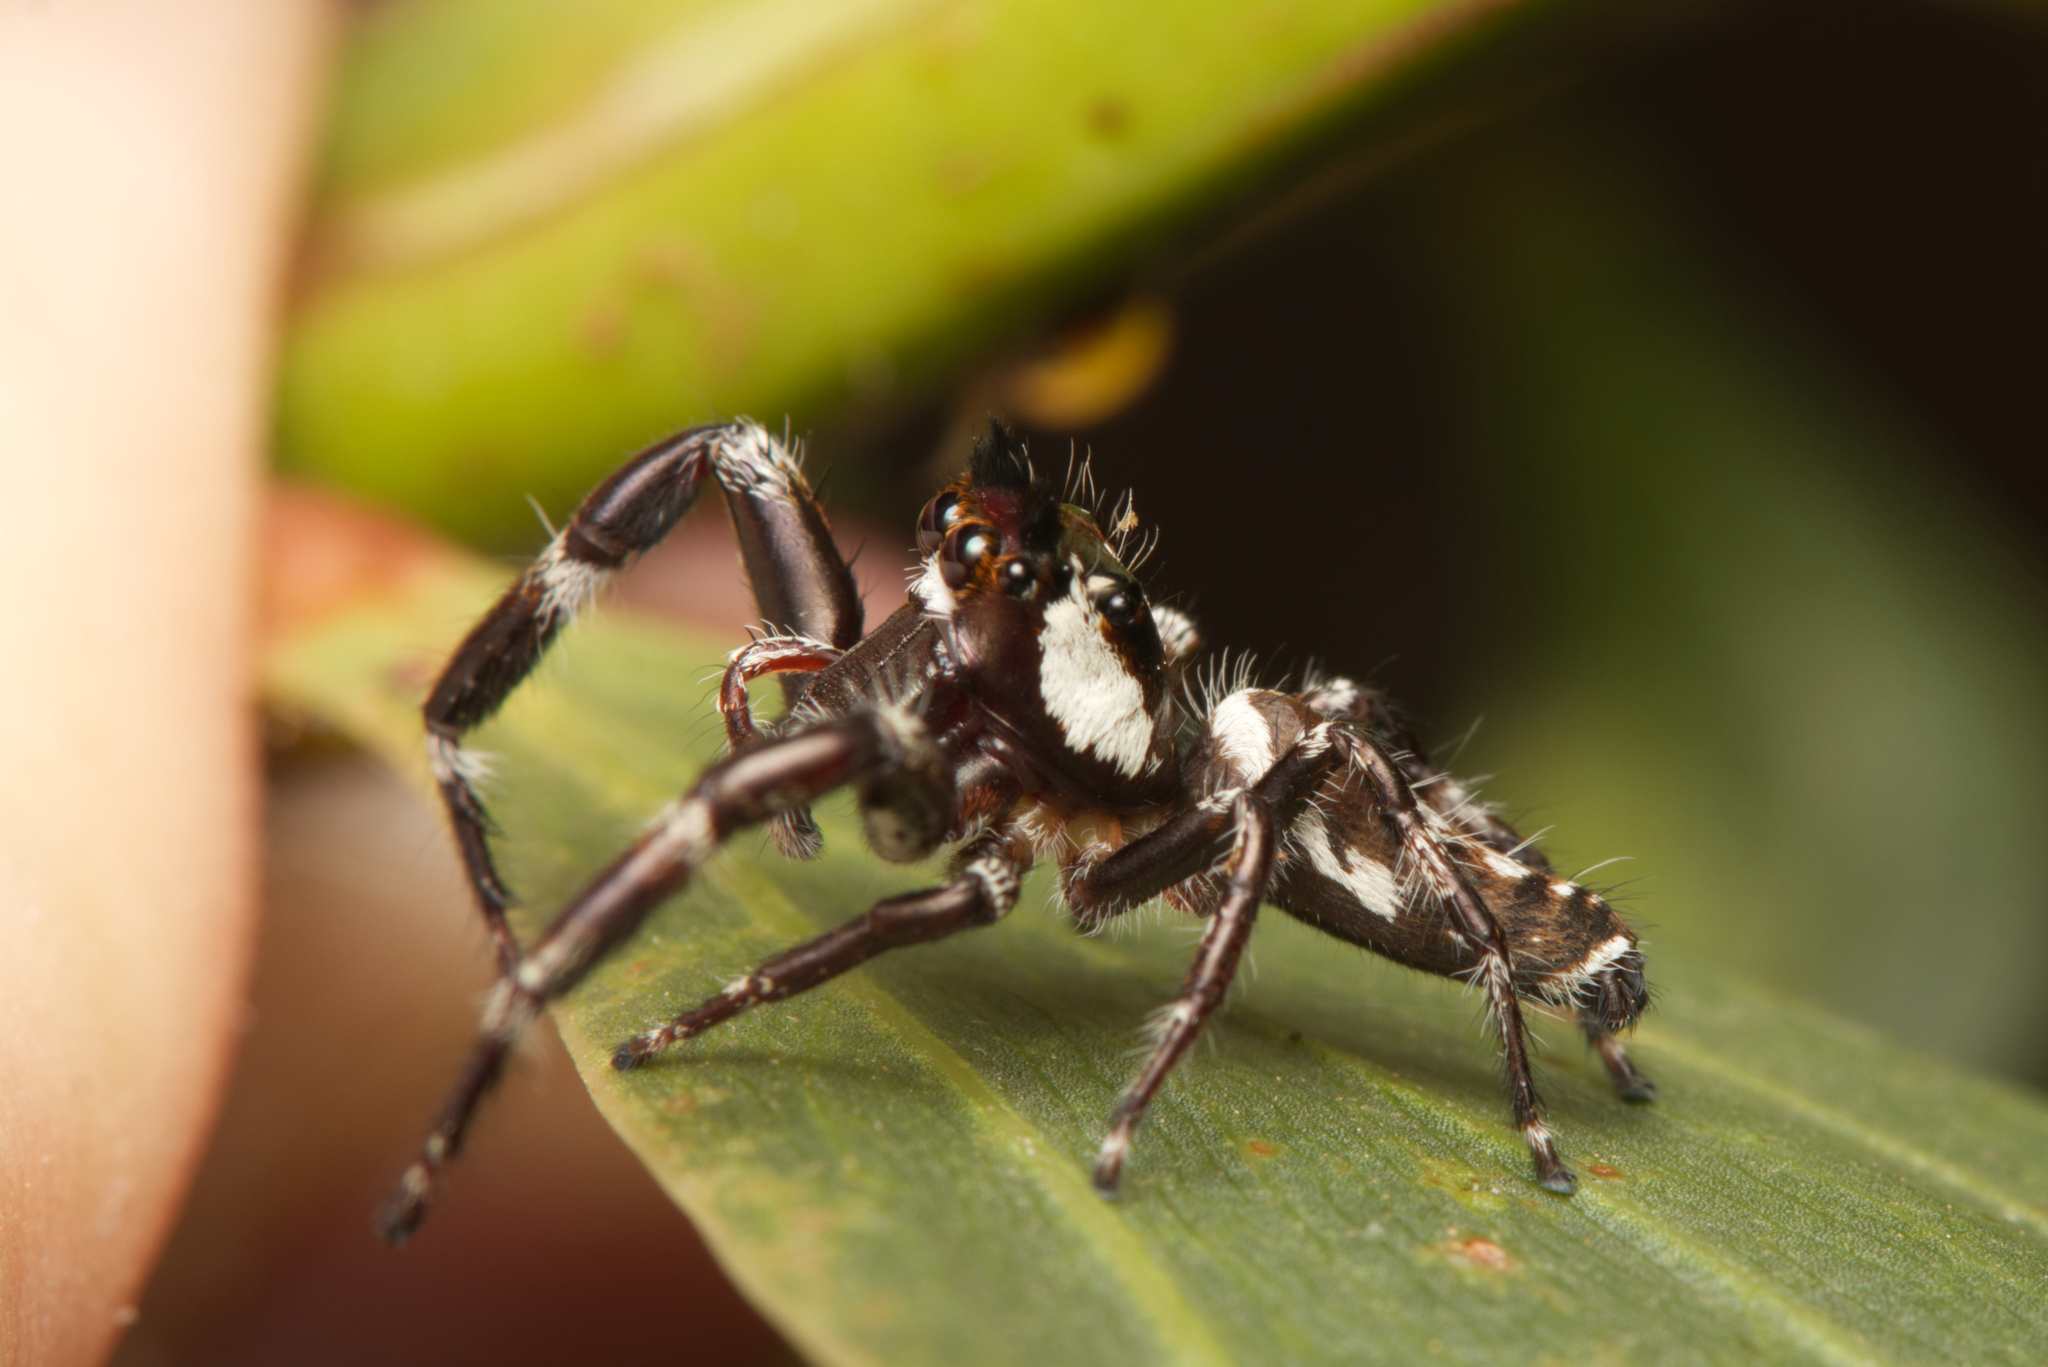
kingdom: Animalia
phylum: Arthropoda
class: Arachnida
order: Araneae
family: Salticidae
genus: Sandalodes
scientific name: Sandalodes bipenicillatus
